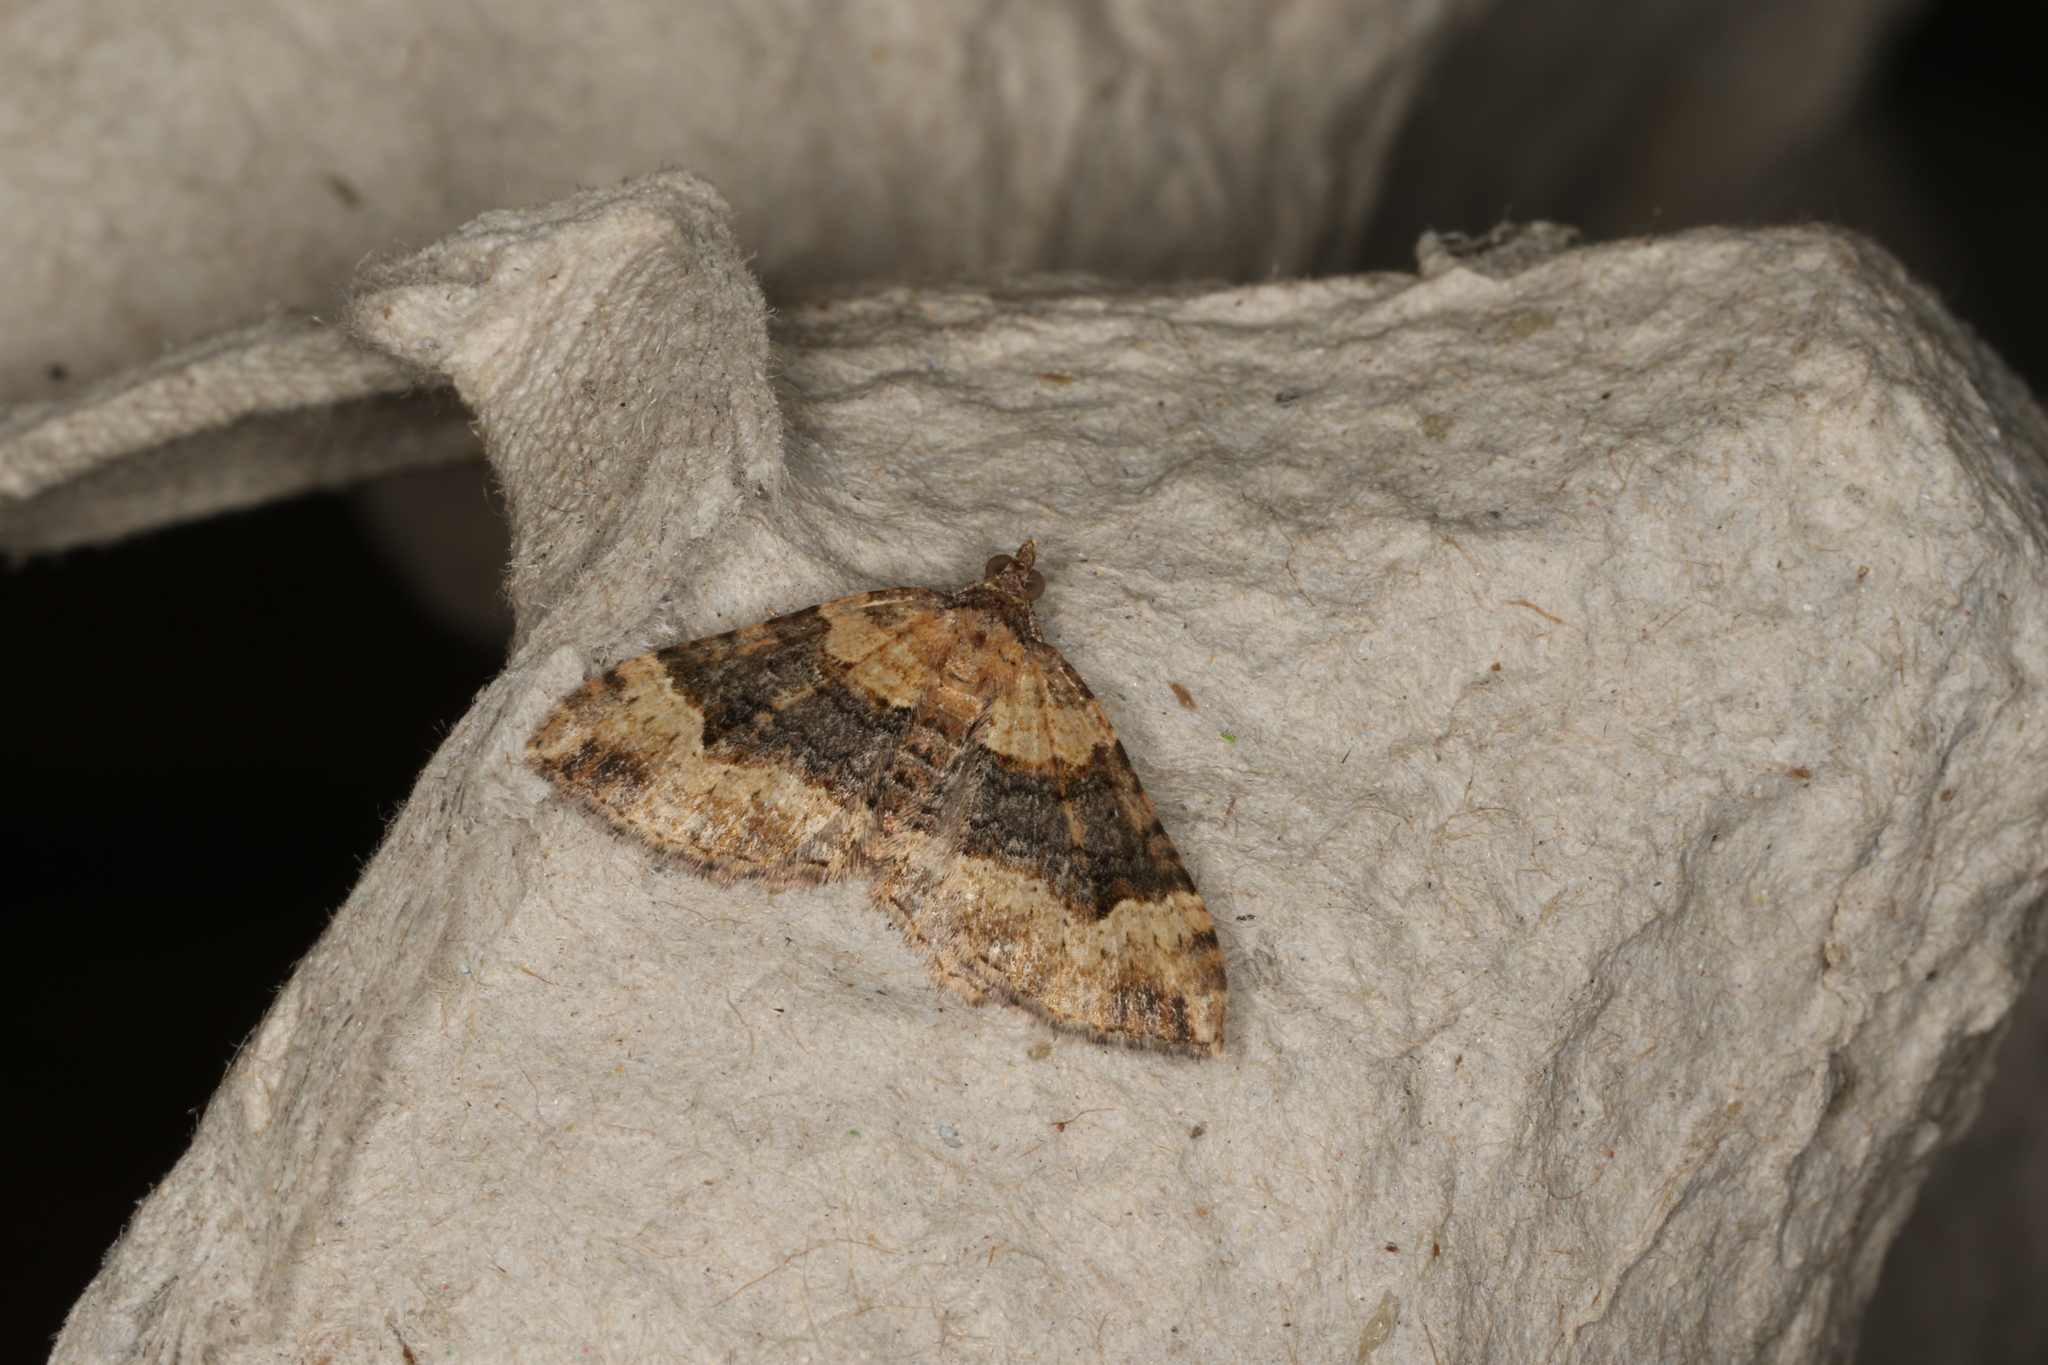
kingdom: Animalia
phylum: Arthropoda
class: Insecta
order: Lepidoptera
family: Geometridae
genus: Epyaxa
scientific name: Epyaxa subidaria
